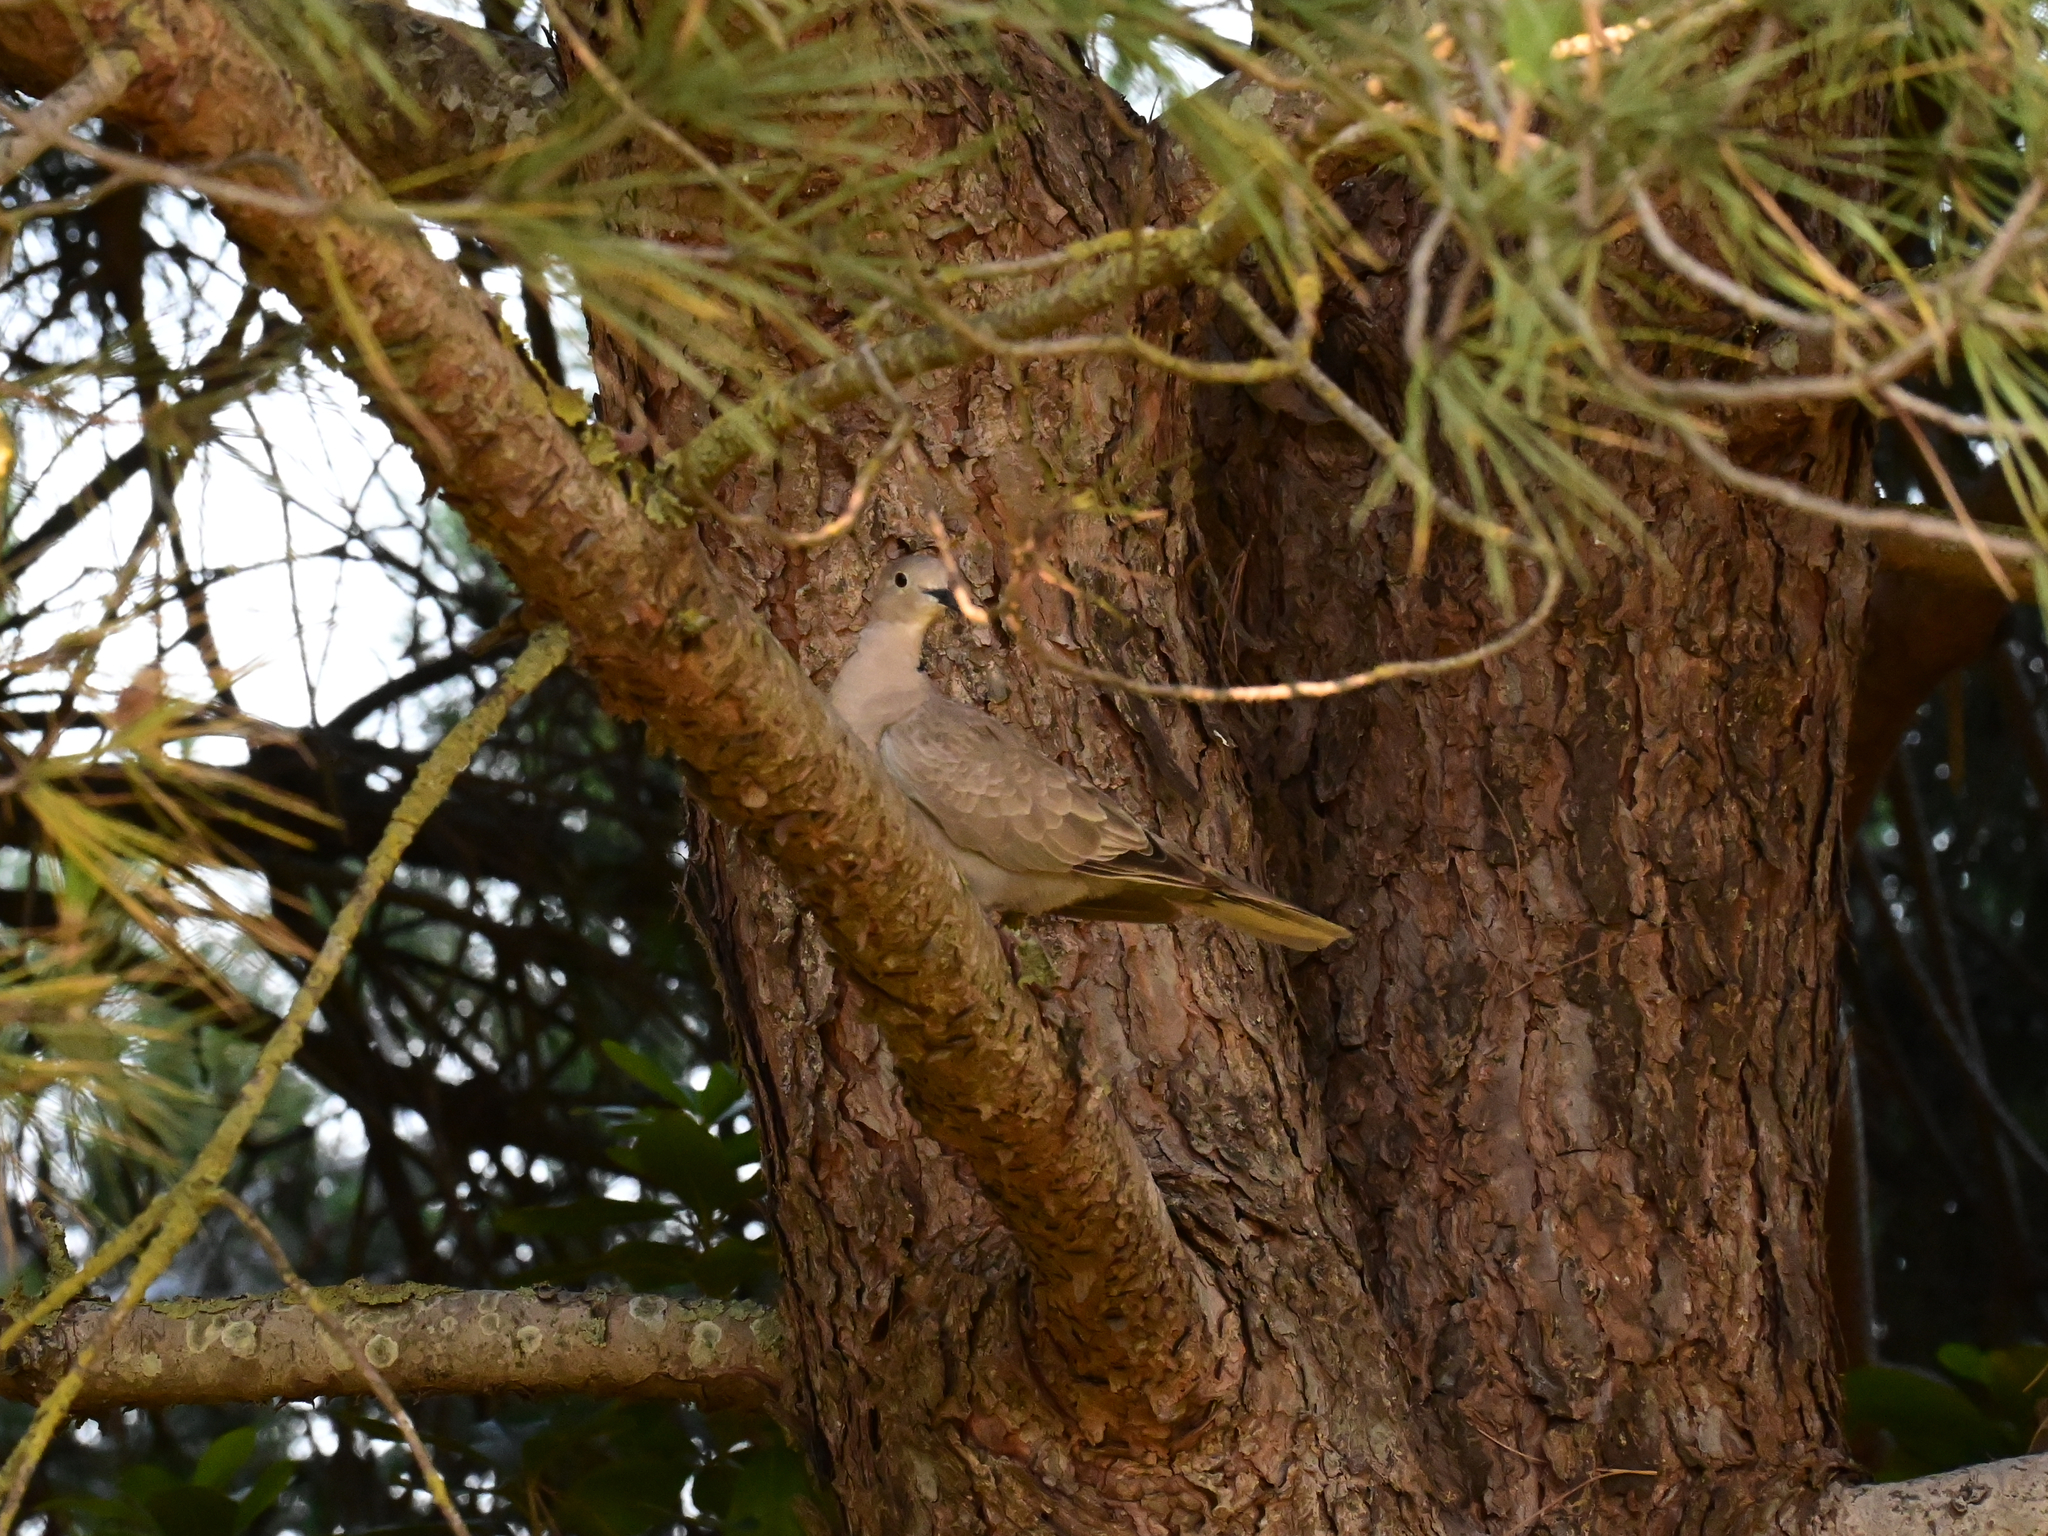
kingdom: Animalia
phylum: Chordata
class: Aves
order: Columbiformes
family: Columbidae
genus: Streptopelia
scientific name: Streptopelia decaocto
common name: Eurasian collared dove
